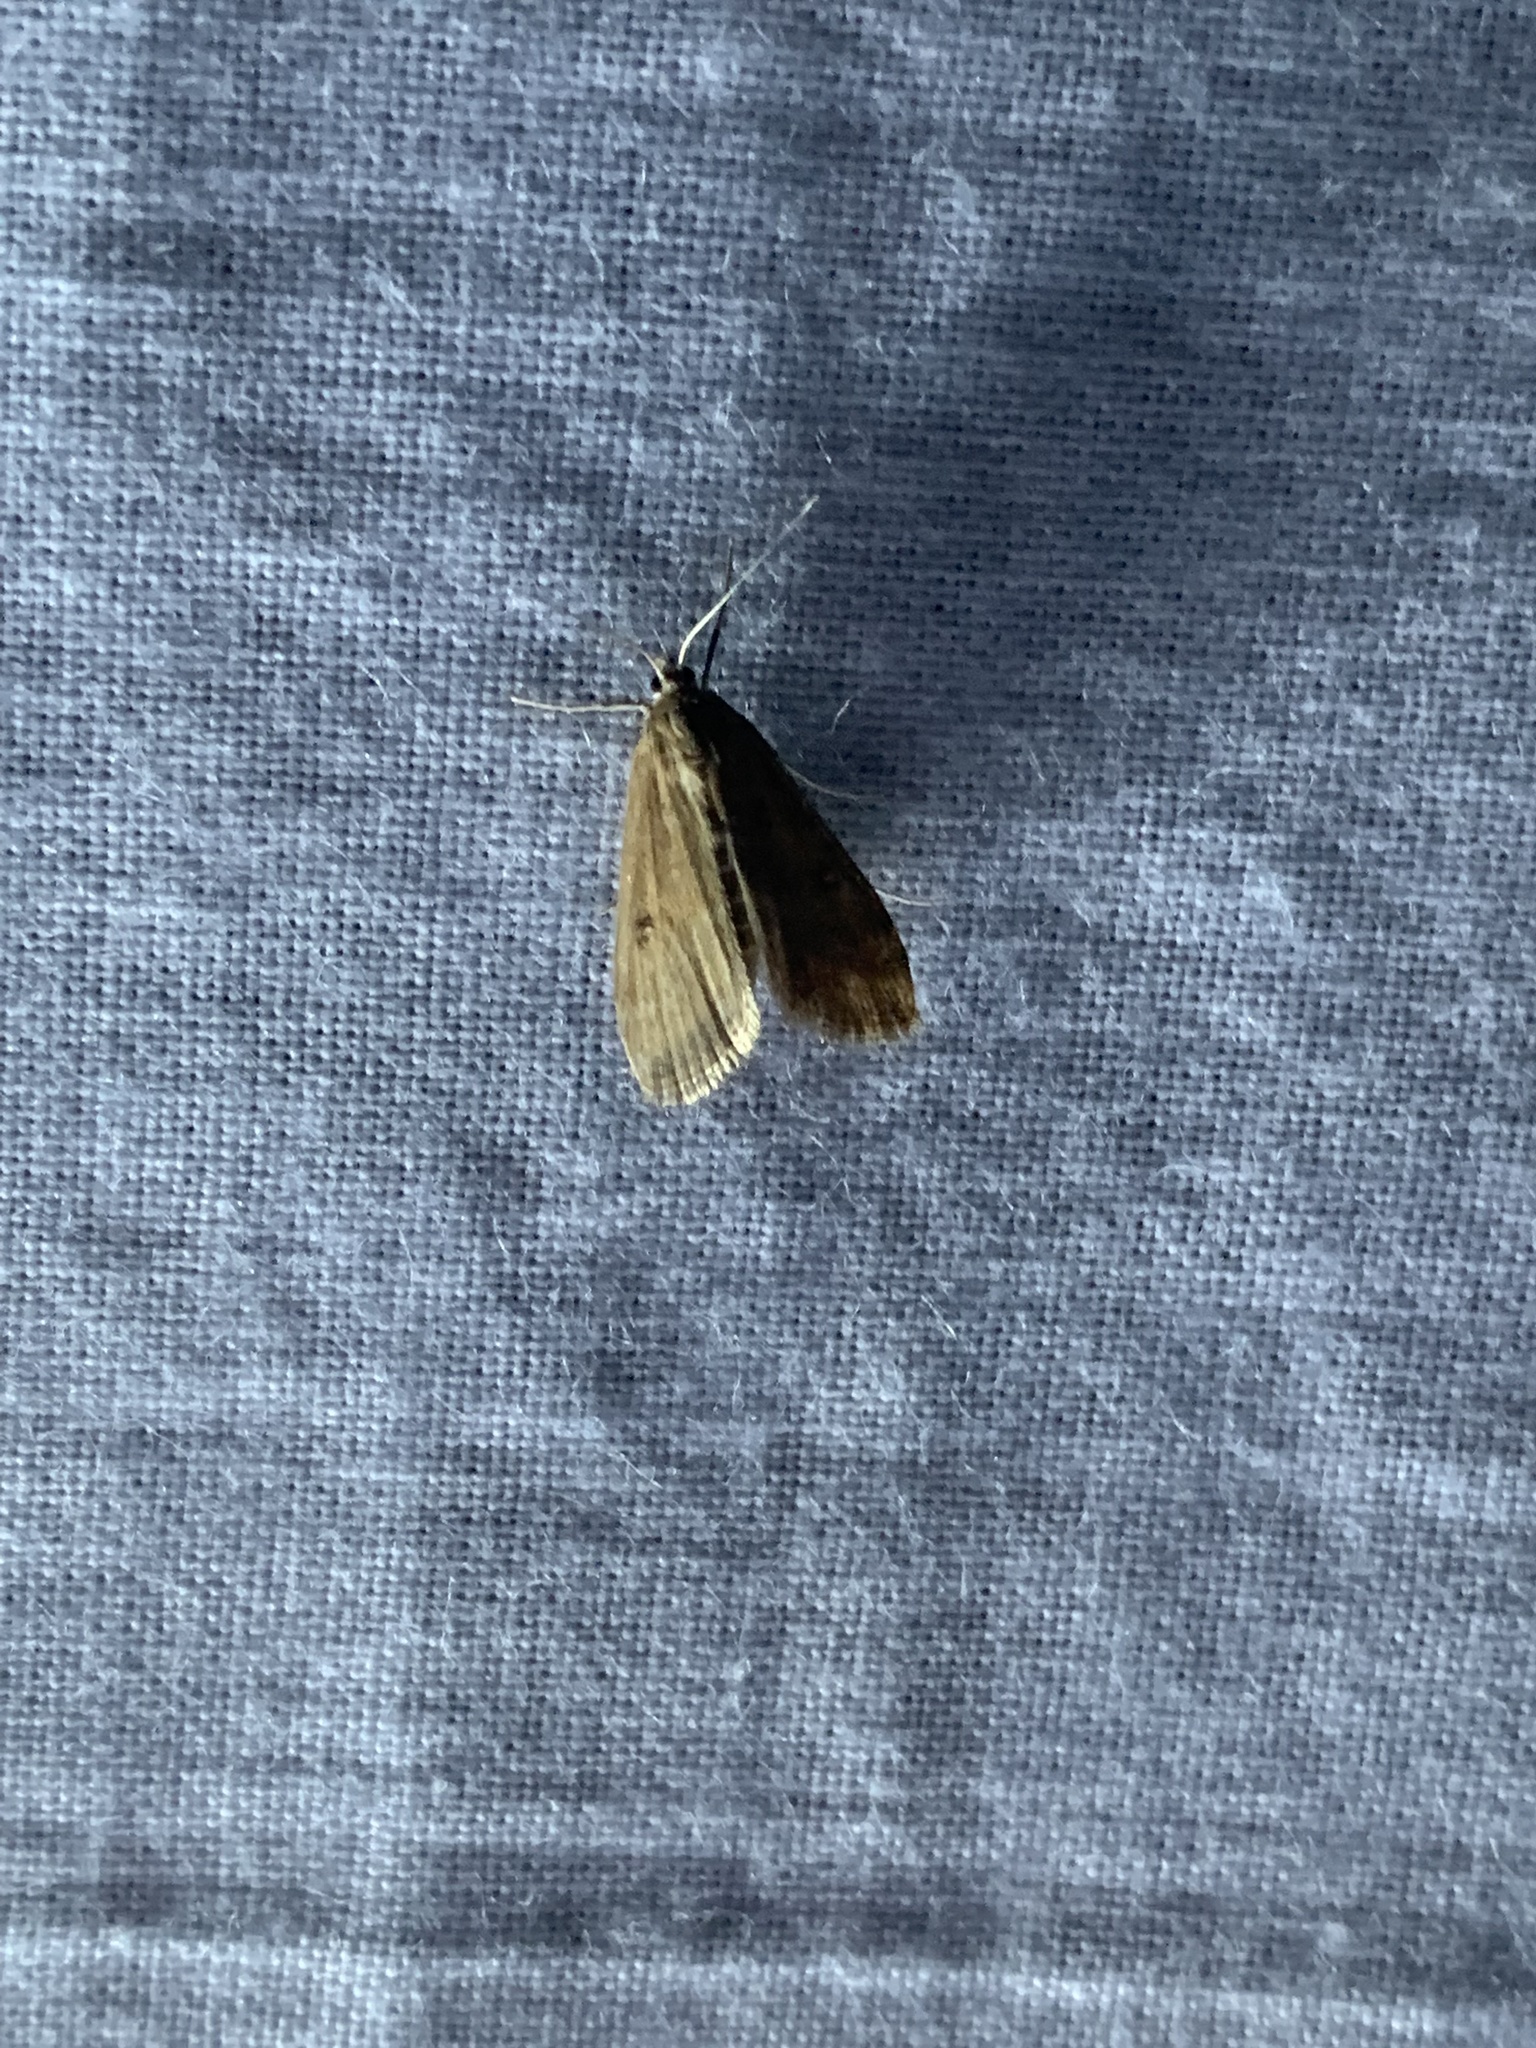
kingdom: Animalia
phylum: Arthropoda
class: Insecta
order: Lepidoptera
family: Crambidae
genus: Parapoynx
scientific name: Parapoynx stratiotata
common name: Ringed china-mark
